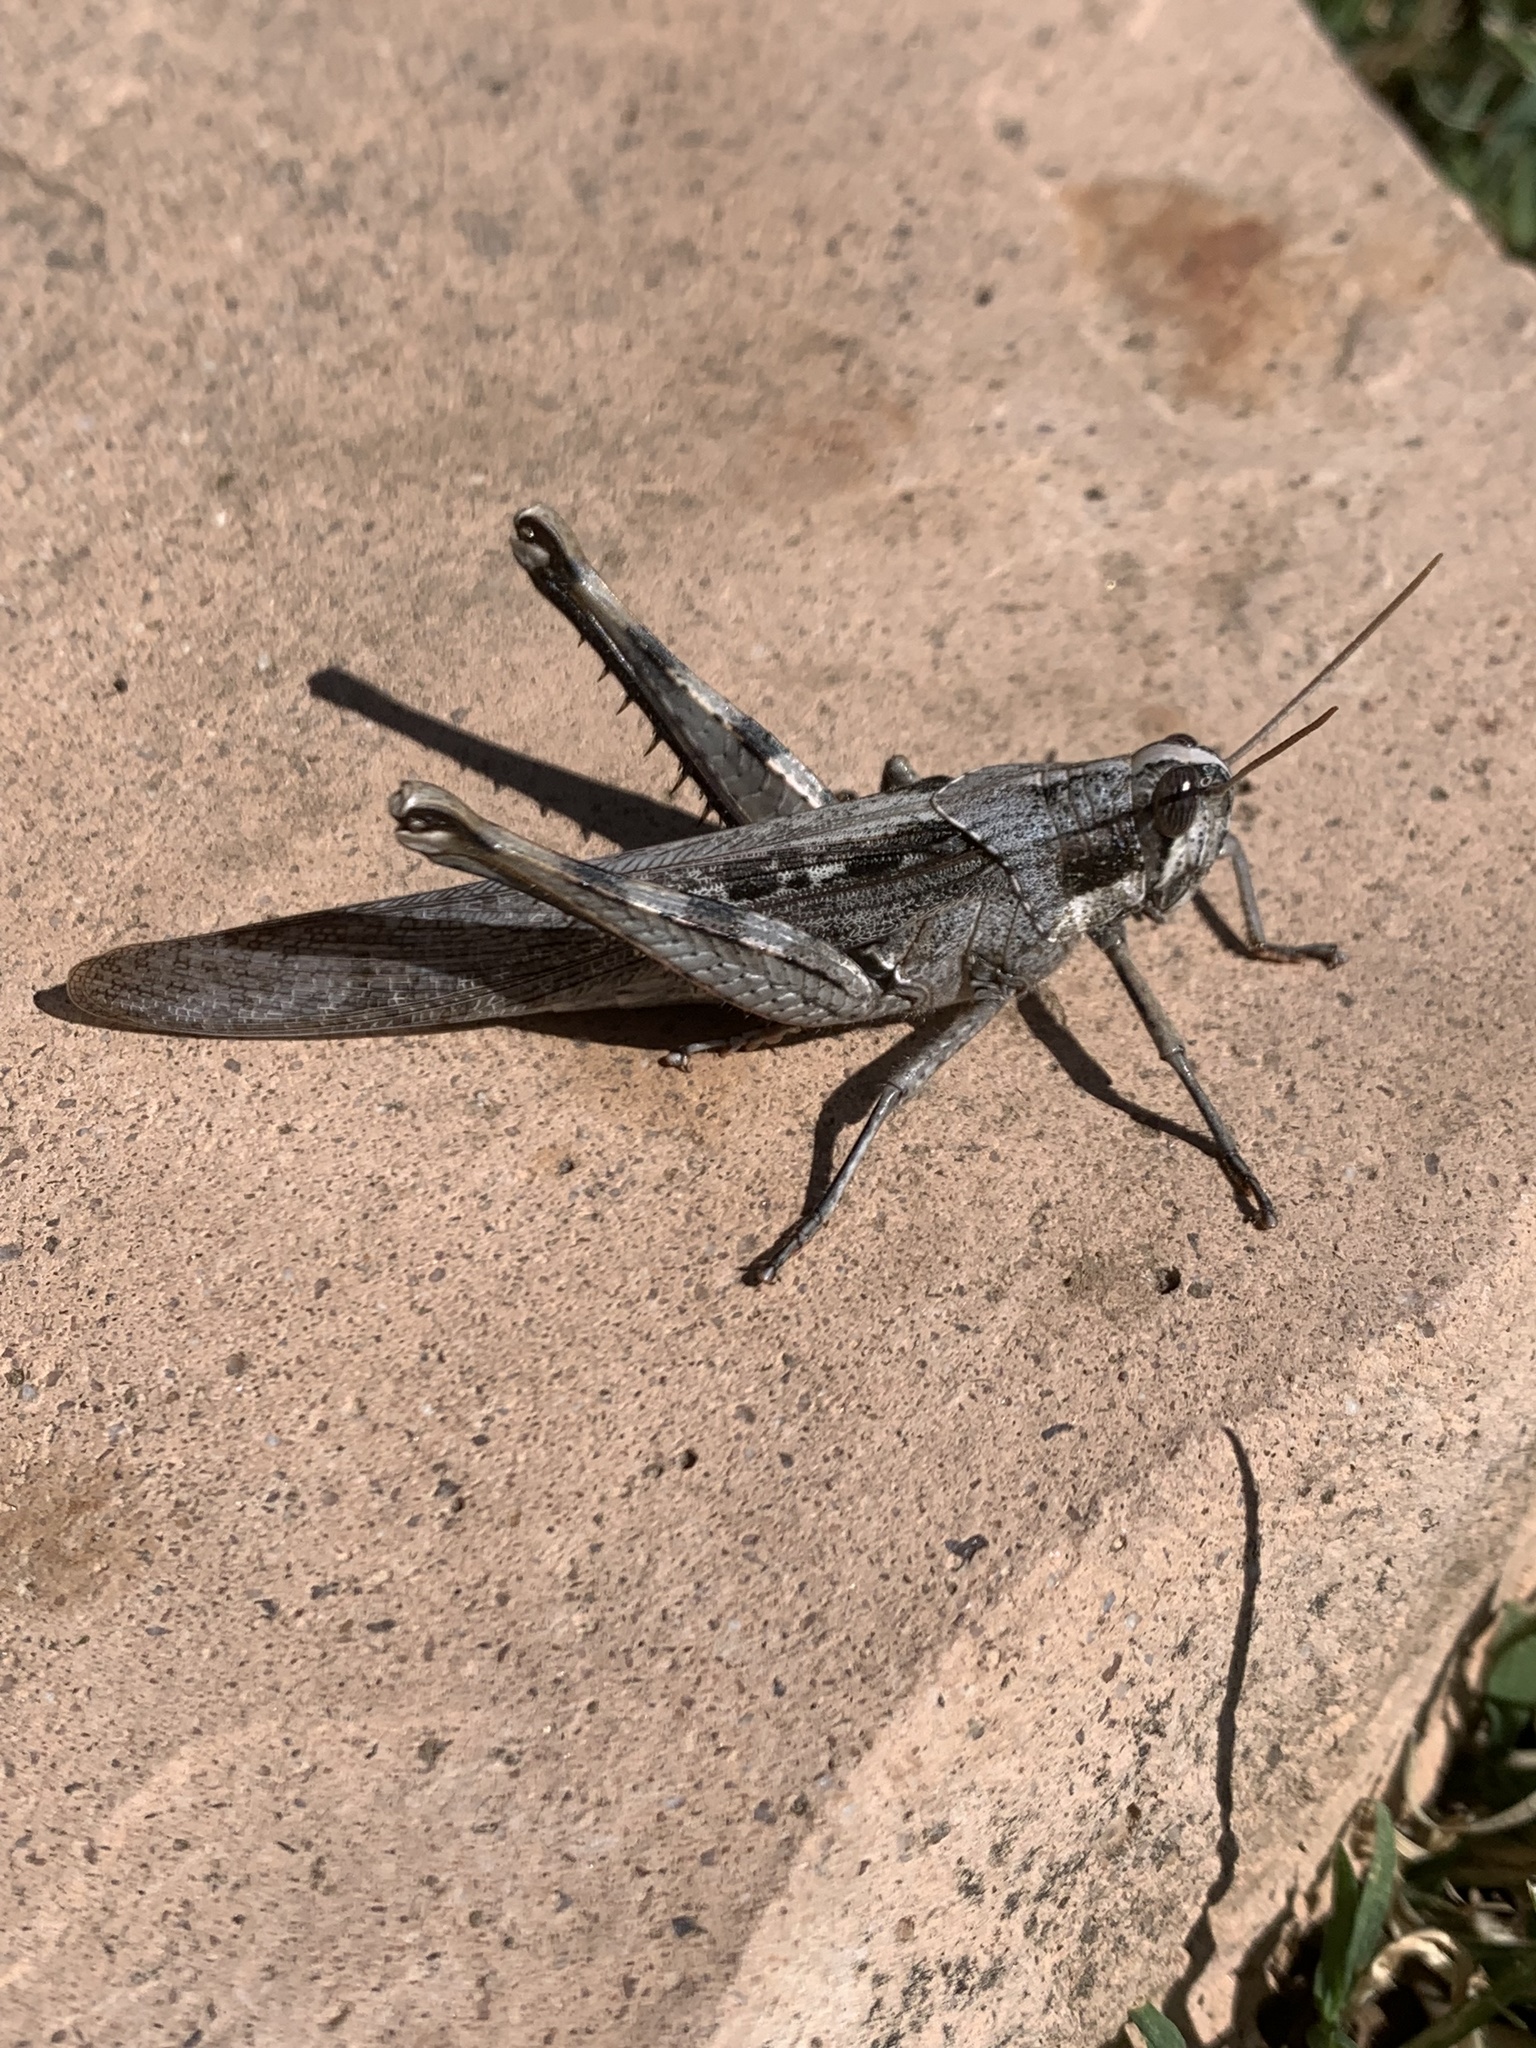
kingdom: Animalia
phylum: Arthropoda
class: Insecta
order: Orthoptera
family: Acrididae
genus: Schistocerca
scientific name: Schistocerca nitens
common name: Vagrant grasshopper
